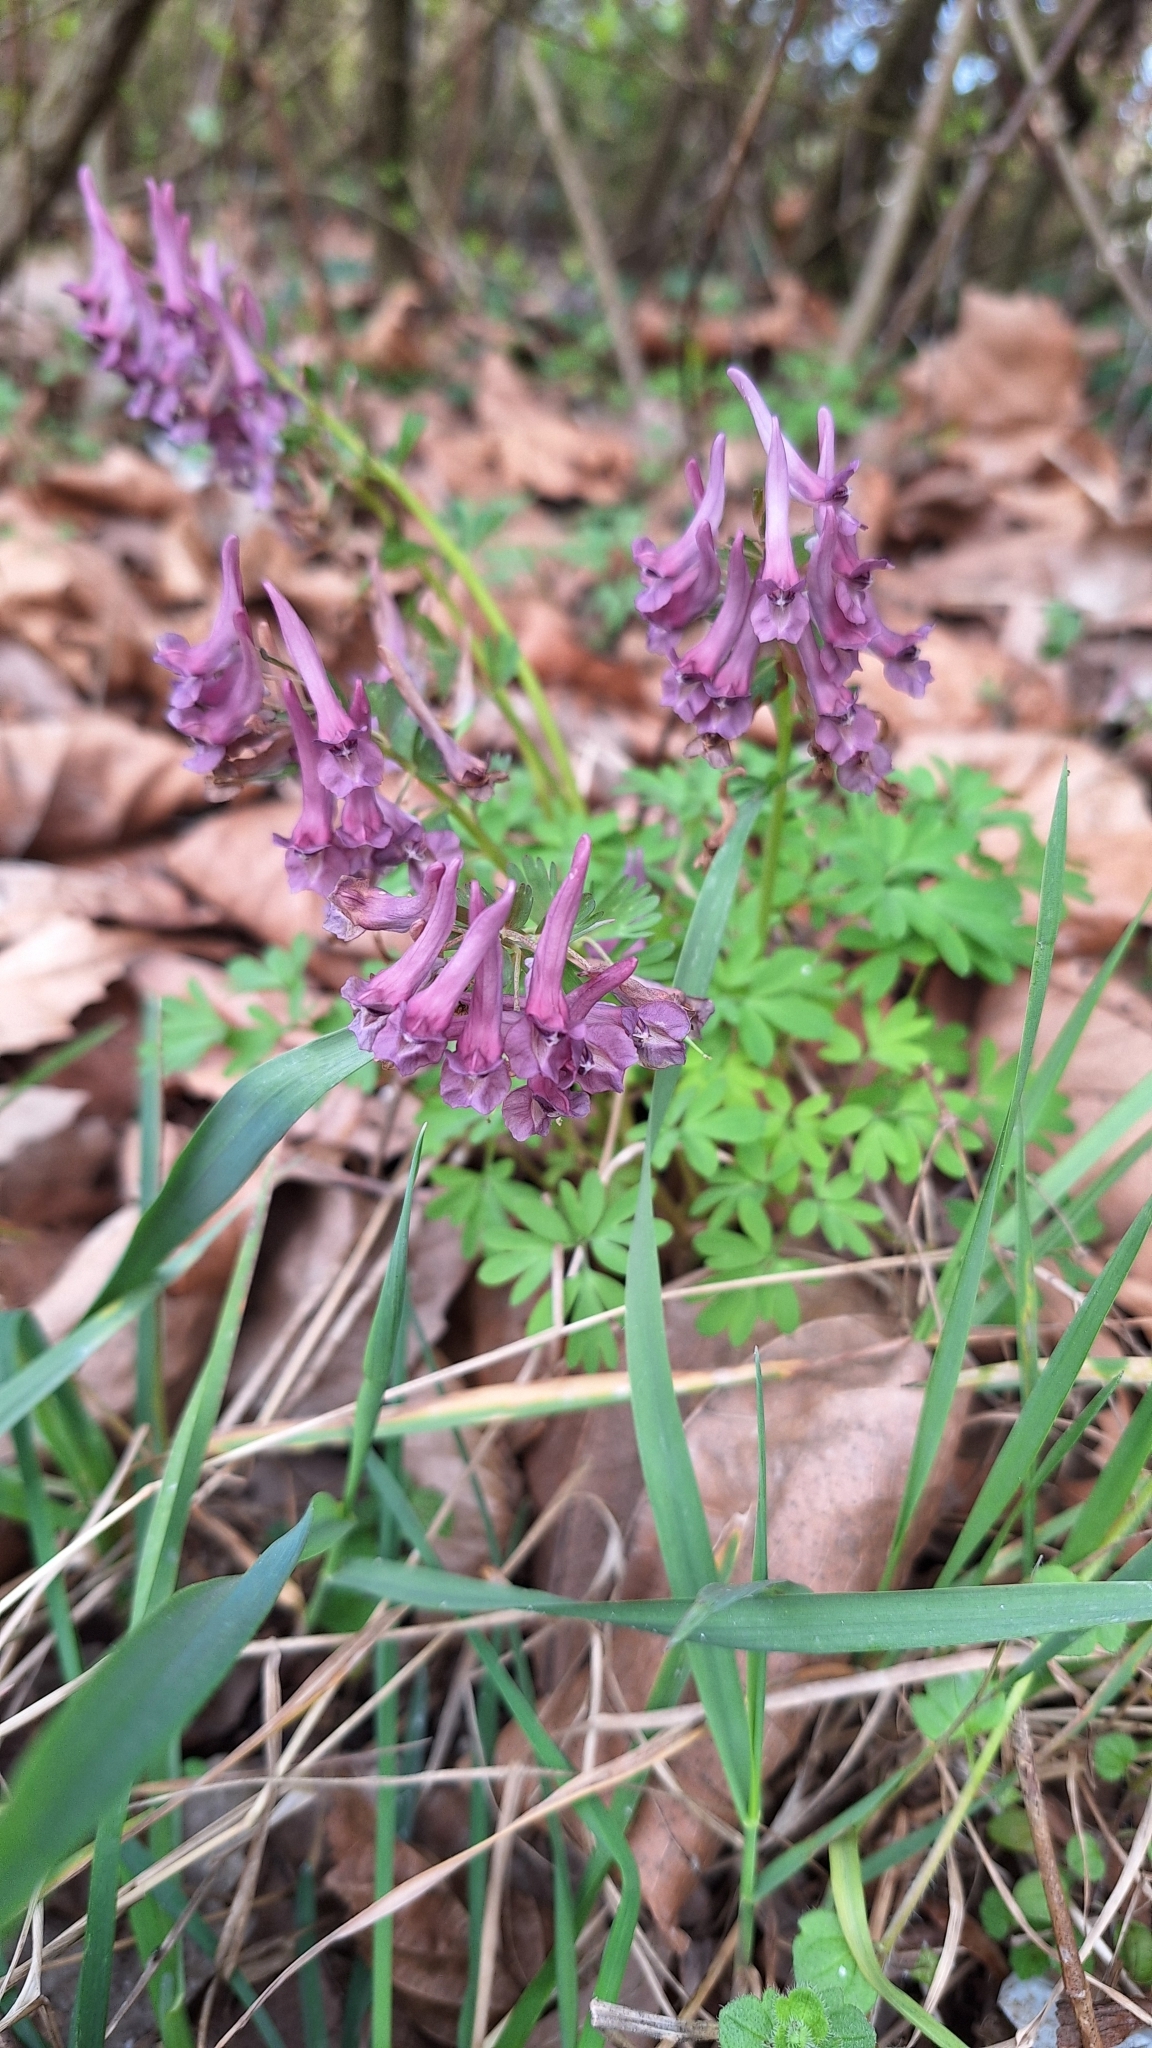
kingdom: Plantae
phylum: Tracheophyta
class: Magnoliopsida
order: Ranunculales
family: Papaveraceae
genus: Corydalis
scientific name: Corydalis solida
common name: Bird-in-a-bush
